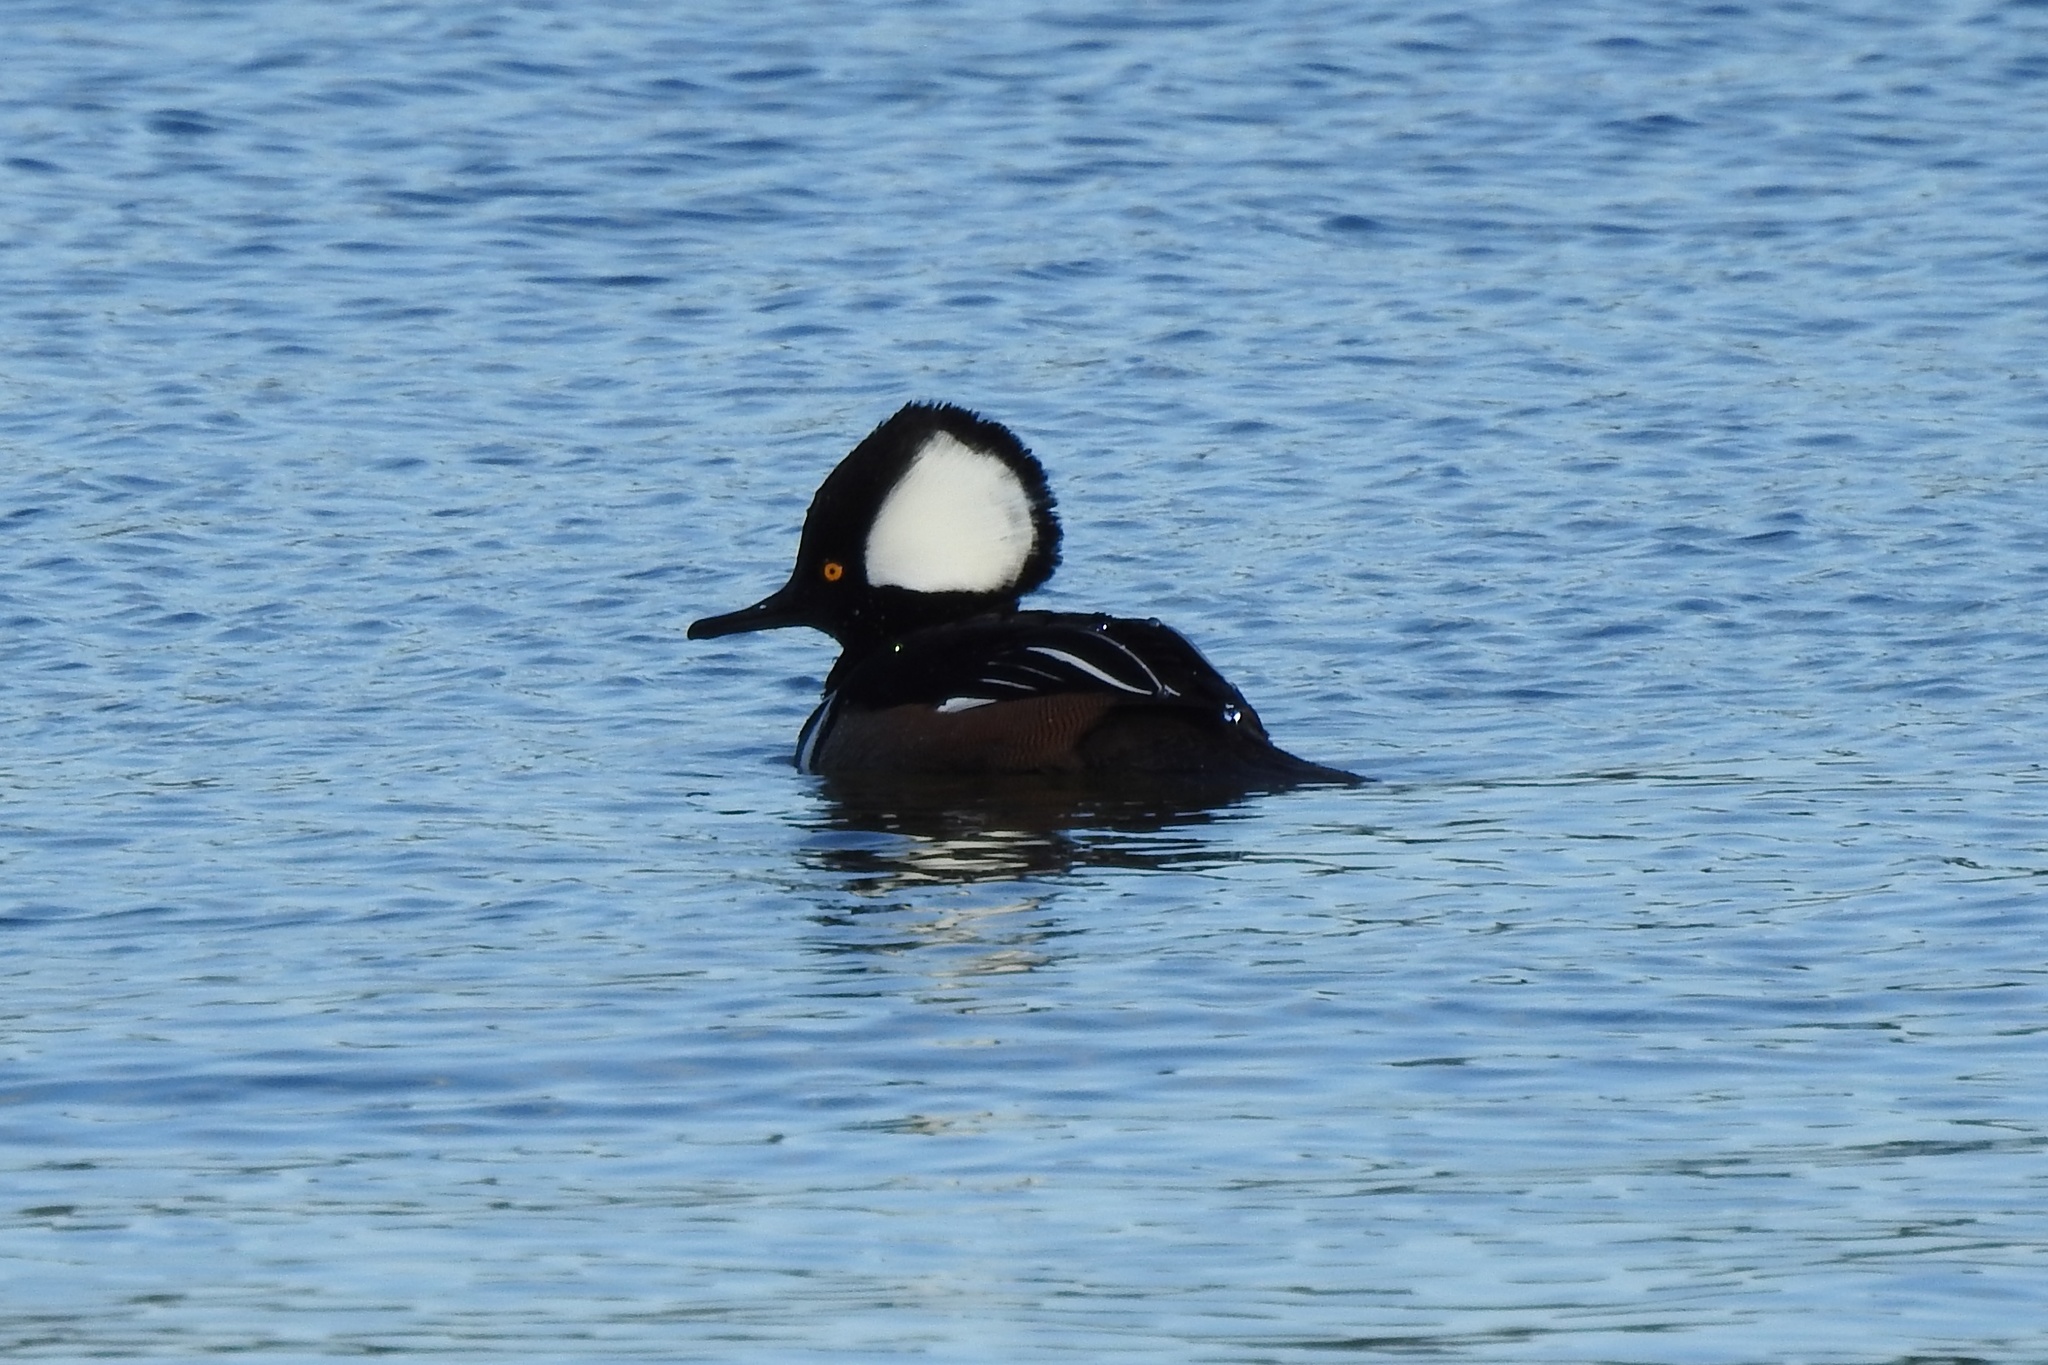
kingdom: Animalia
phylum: Chordata
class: Aves
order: Anseriformes
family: Anatidae
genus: Lophodytes
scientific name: Lophodytes cucullatus
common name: Hooded merganser
